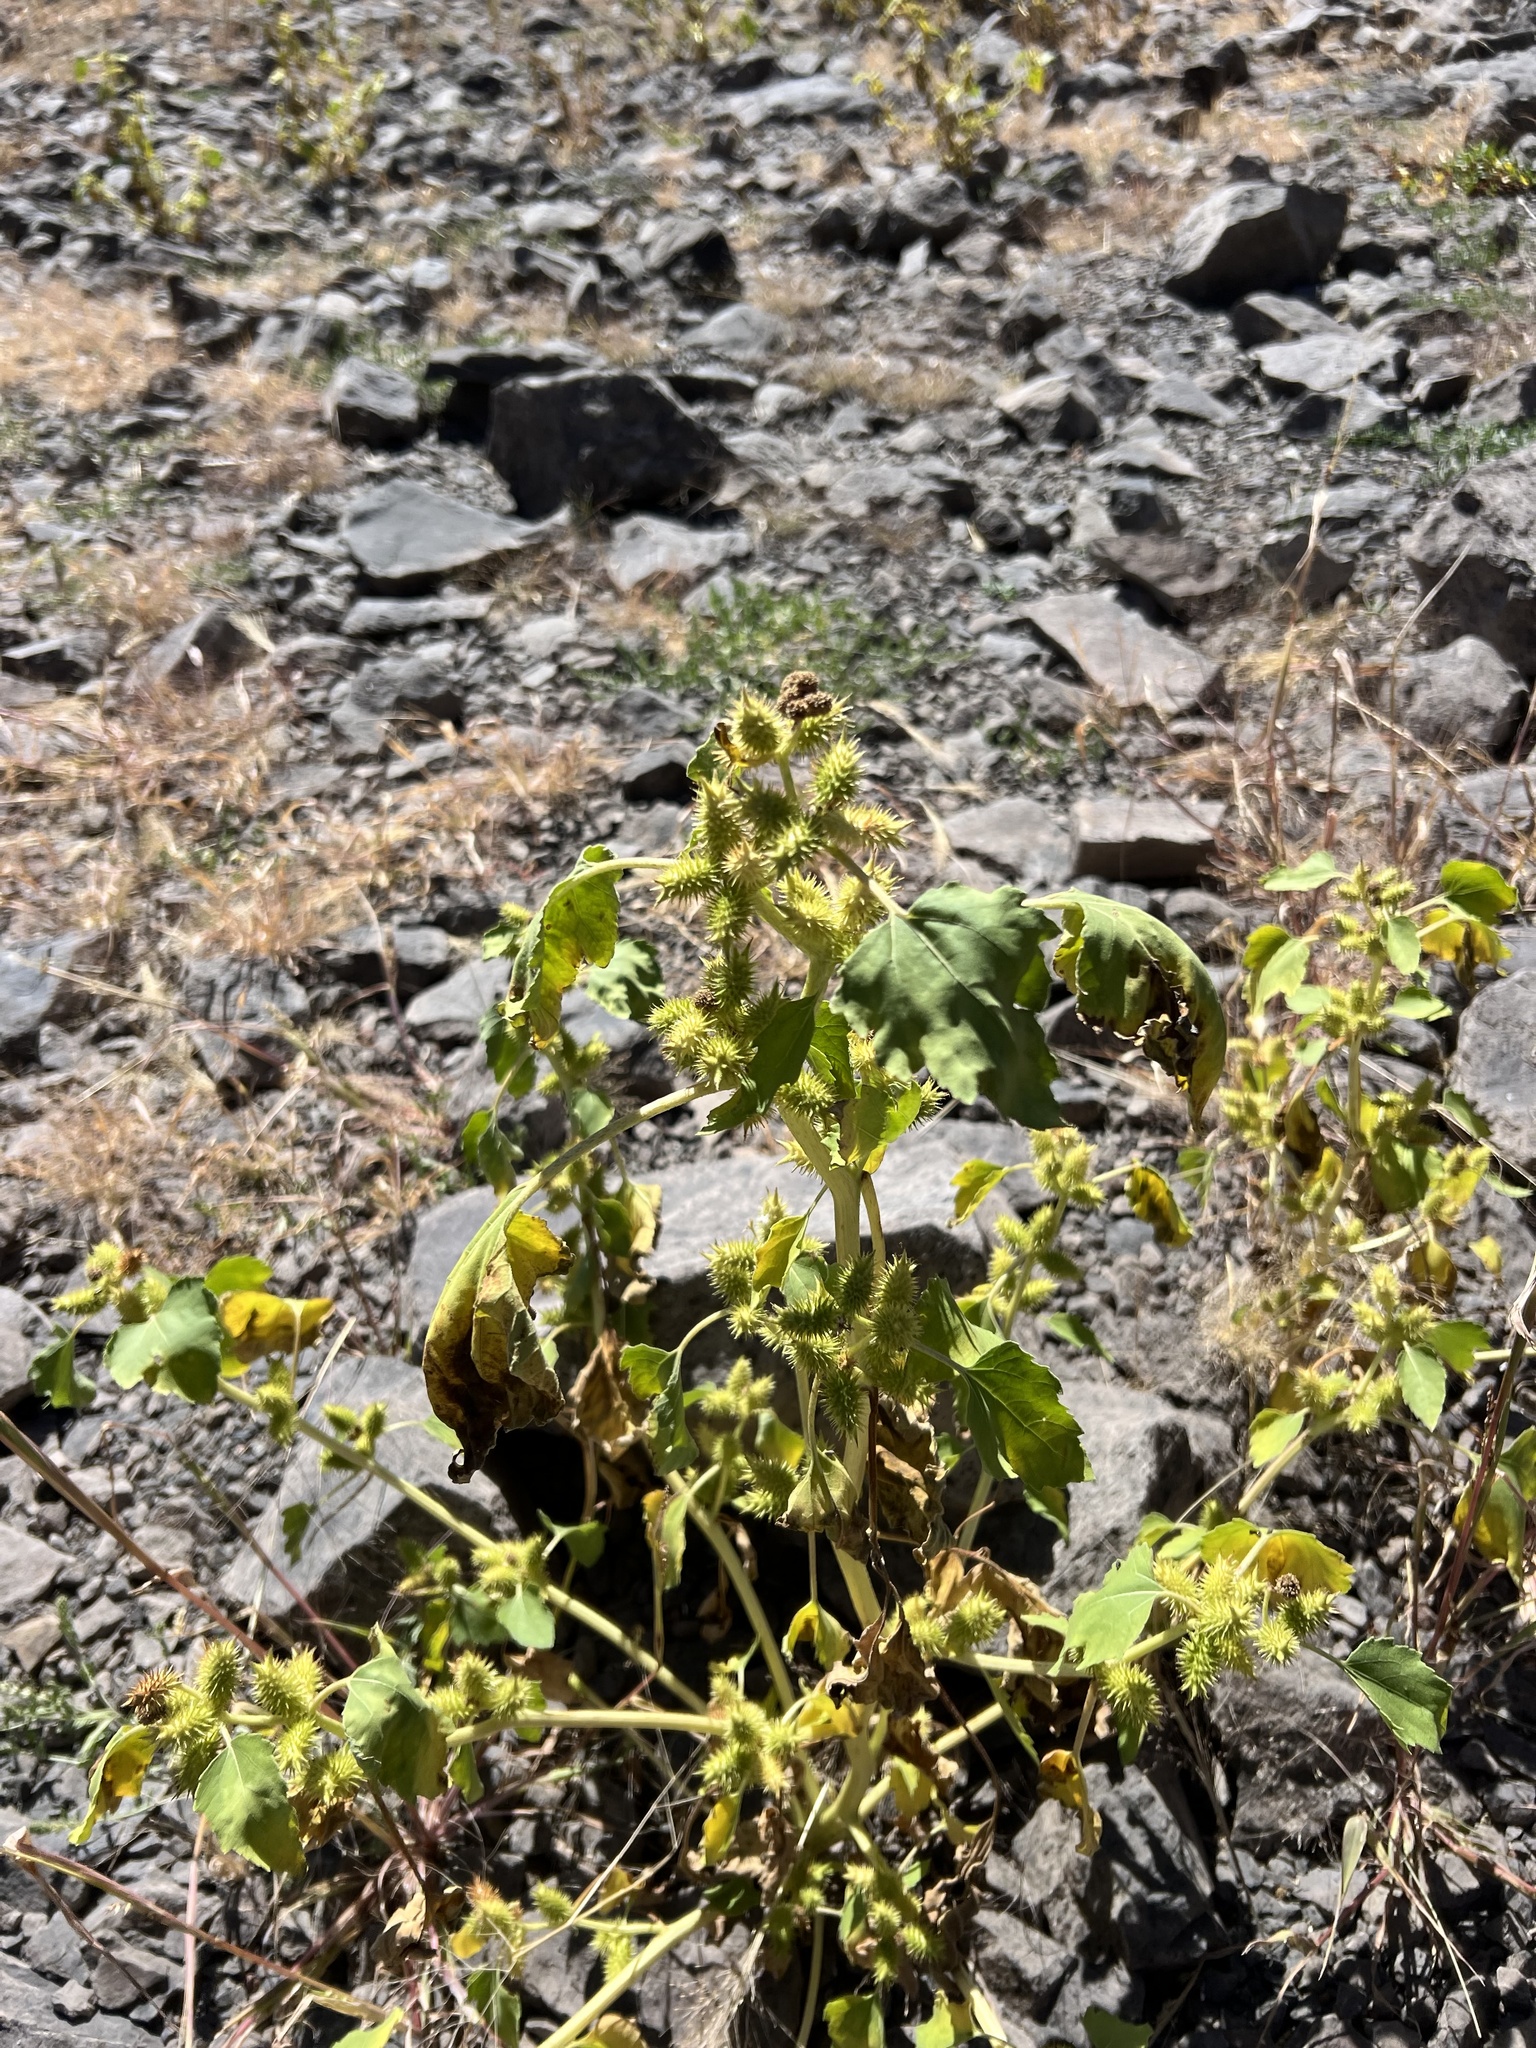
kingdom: Plantae
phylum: Tracheophyta
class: Magnoliopsida
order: Asterales
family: Asteraceae
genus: Xanthium
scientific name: Xanthium strumarium
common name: Rough cocklebur
